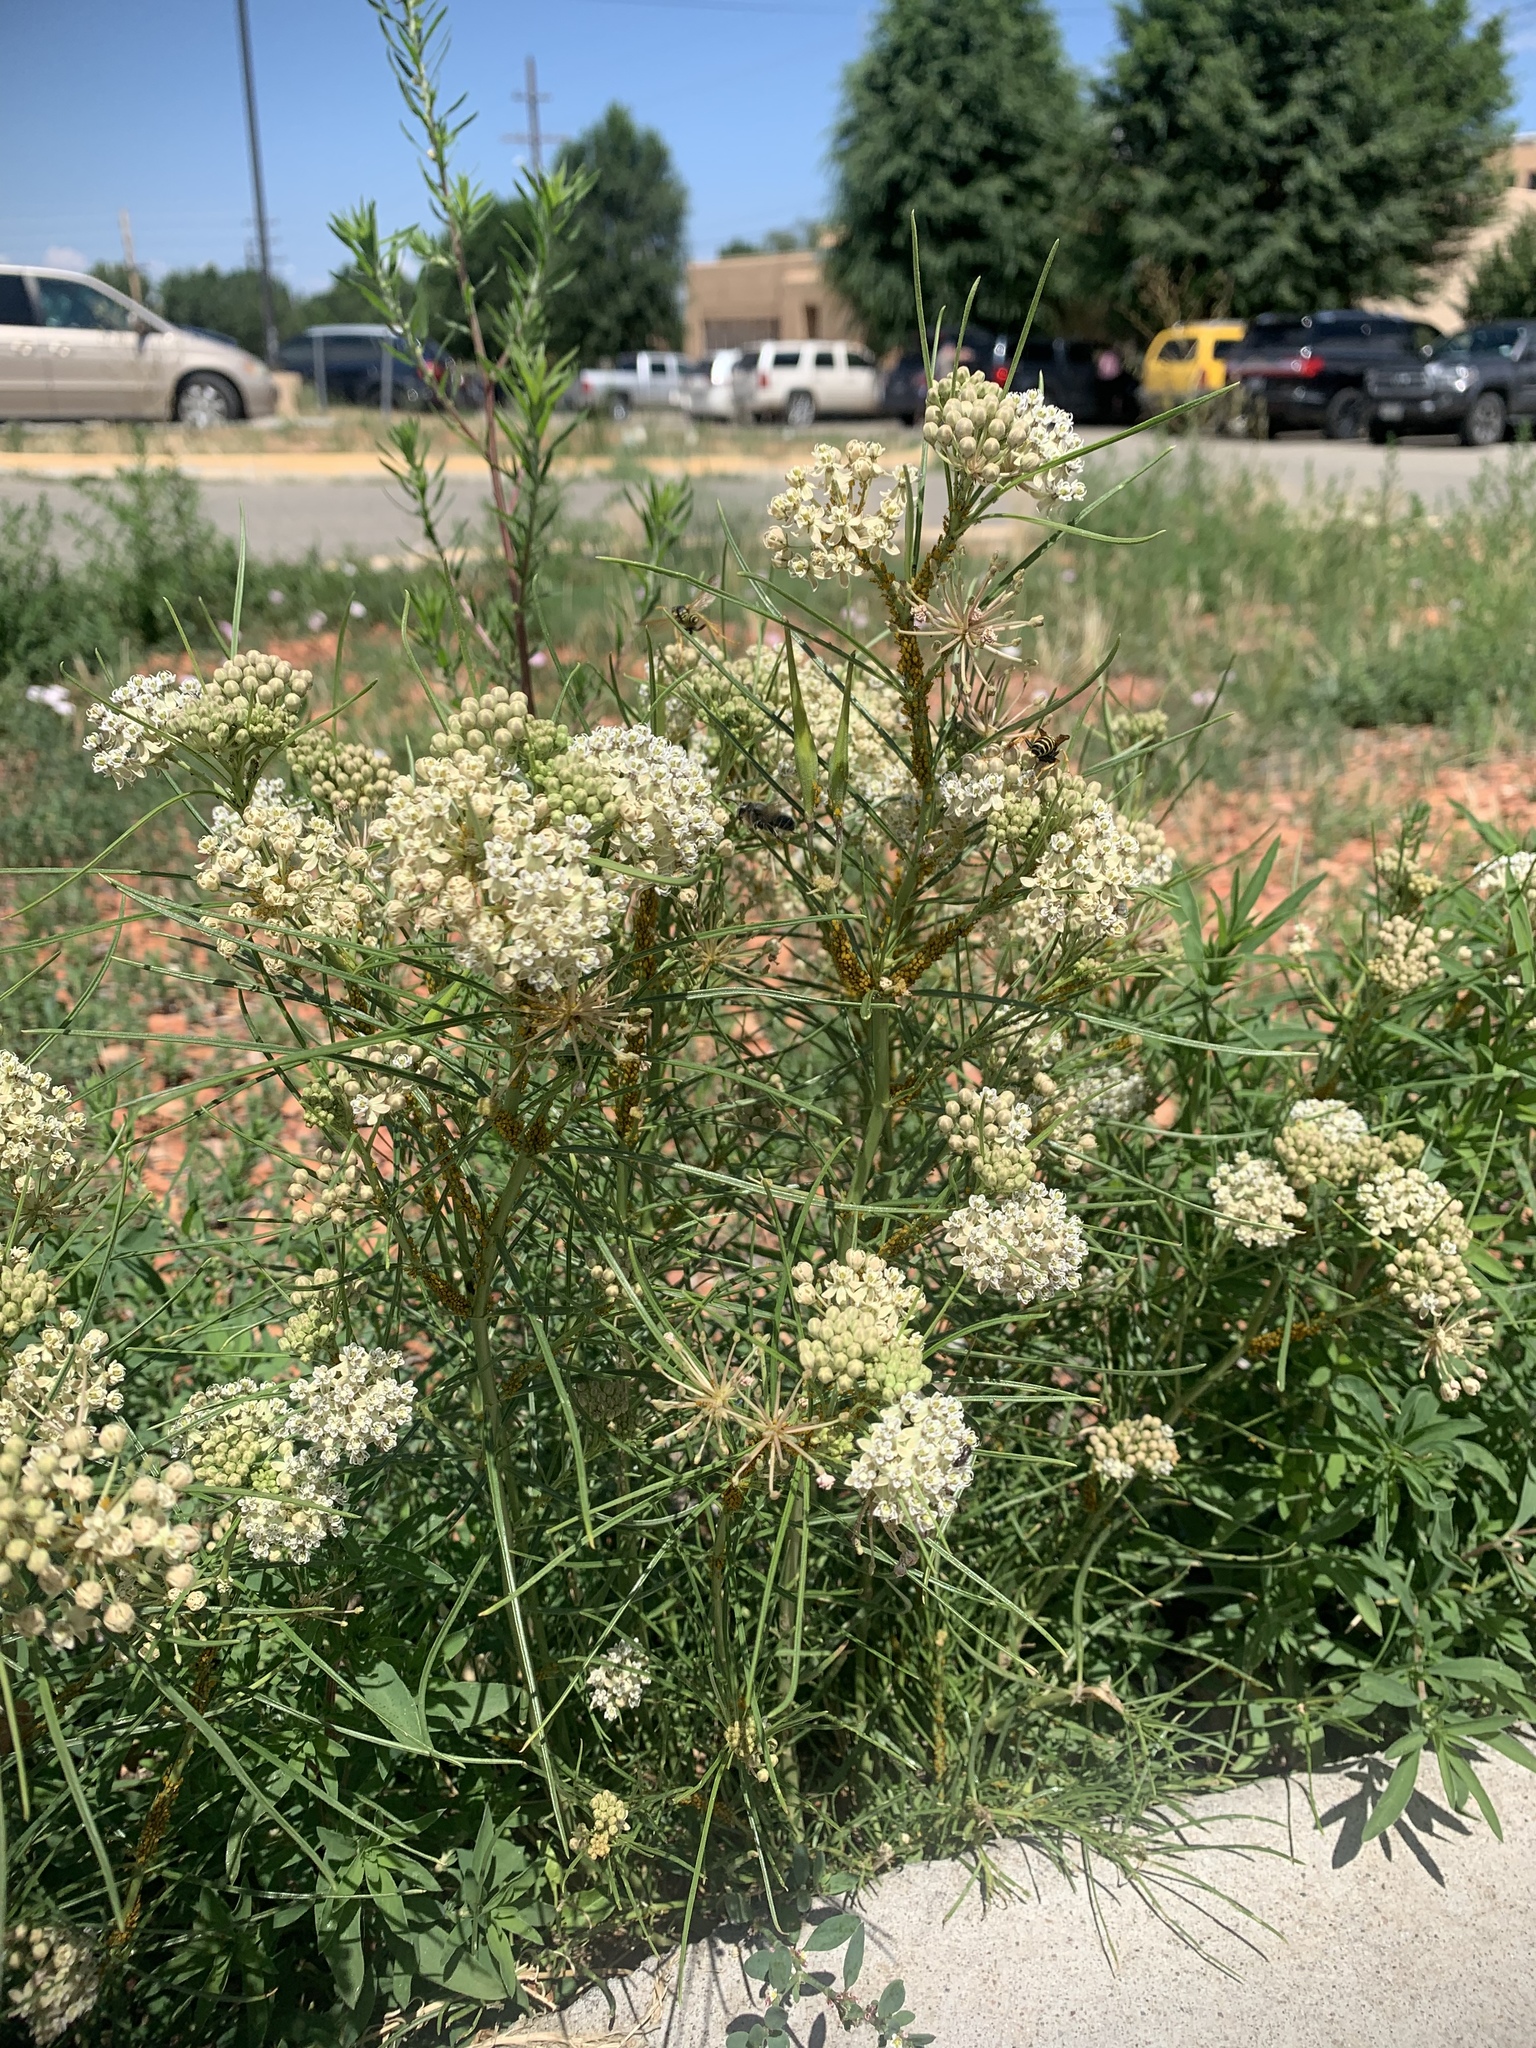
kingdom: Plantae
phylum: Tracheophyta
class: Magnoliopsida
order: Gentianales
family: Apocynaceae
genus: Asclepias
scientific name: Asclepias subverticillata
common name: Horsetail milkweed
